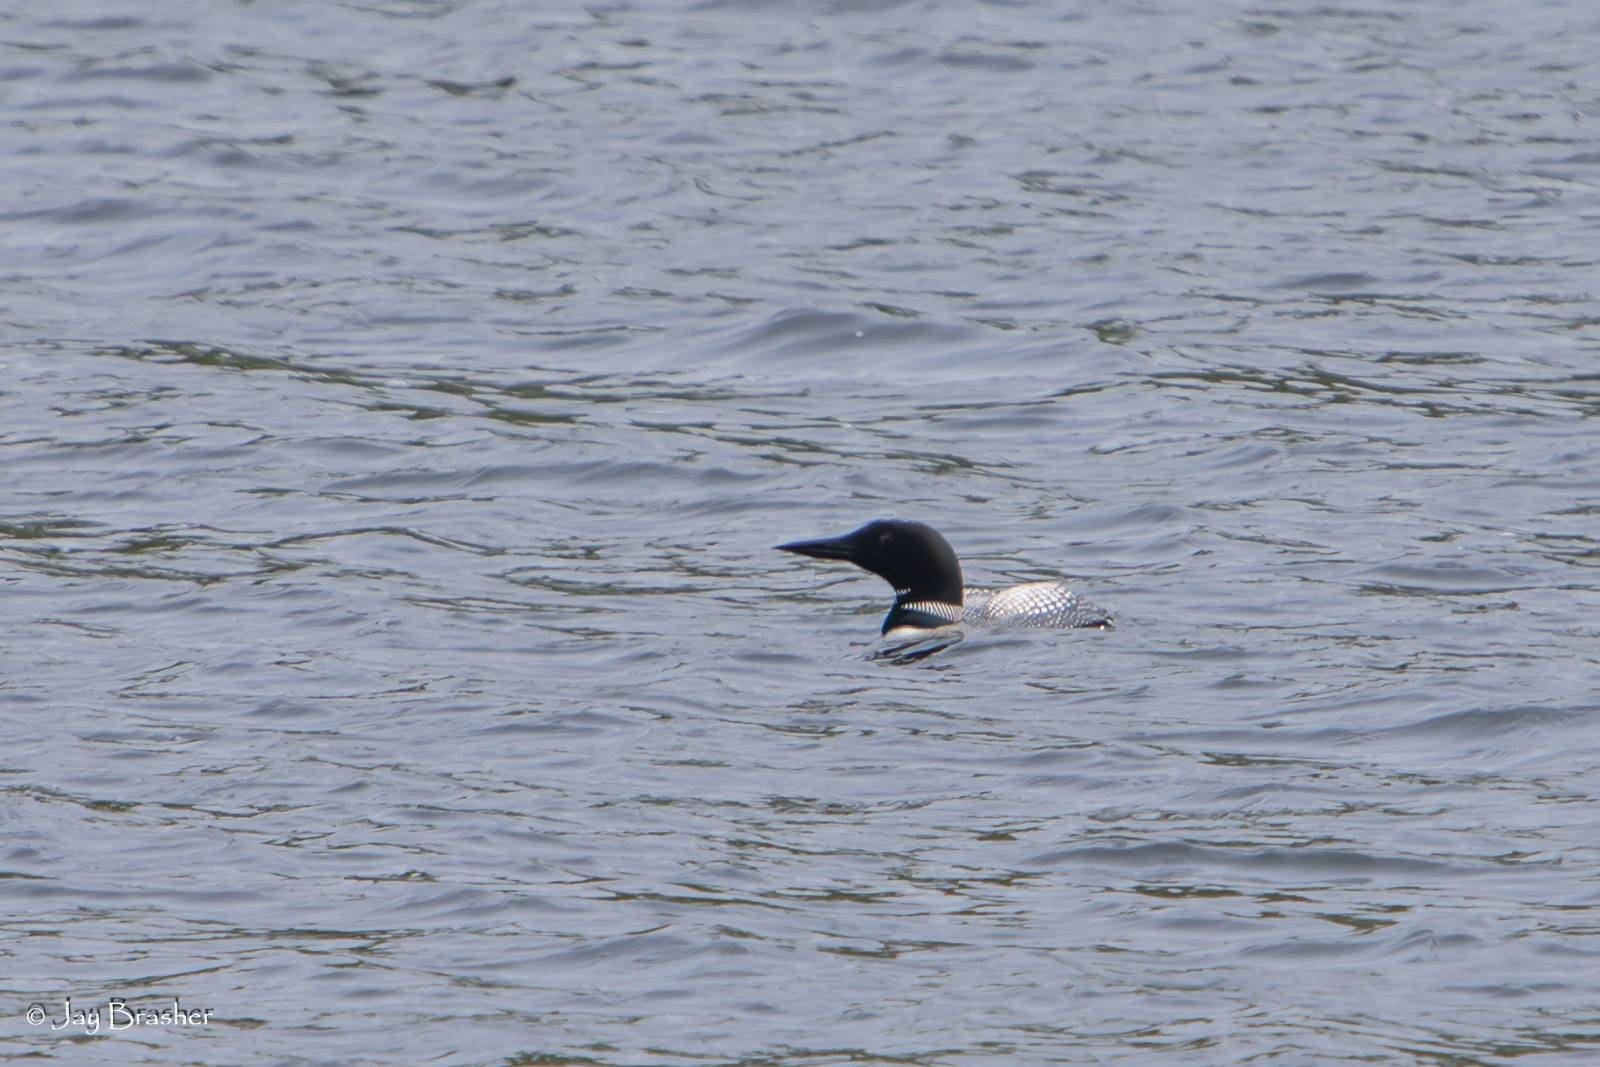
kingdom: Animalia
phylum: Chordata
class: Aves
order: Gaviiformes
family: Gaviidae
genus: Gavia
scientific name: Gavia immer
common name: Common loon
